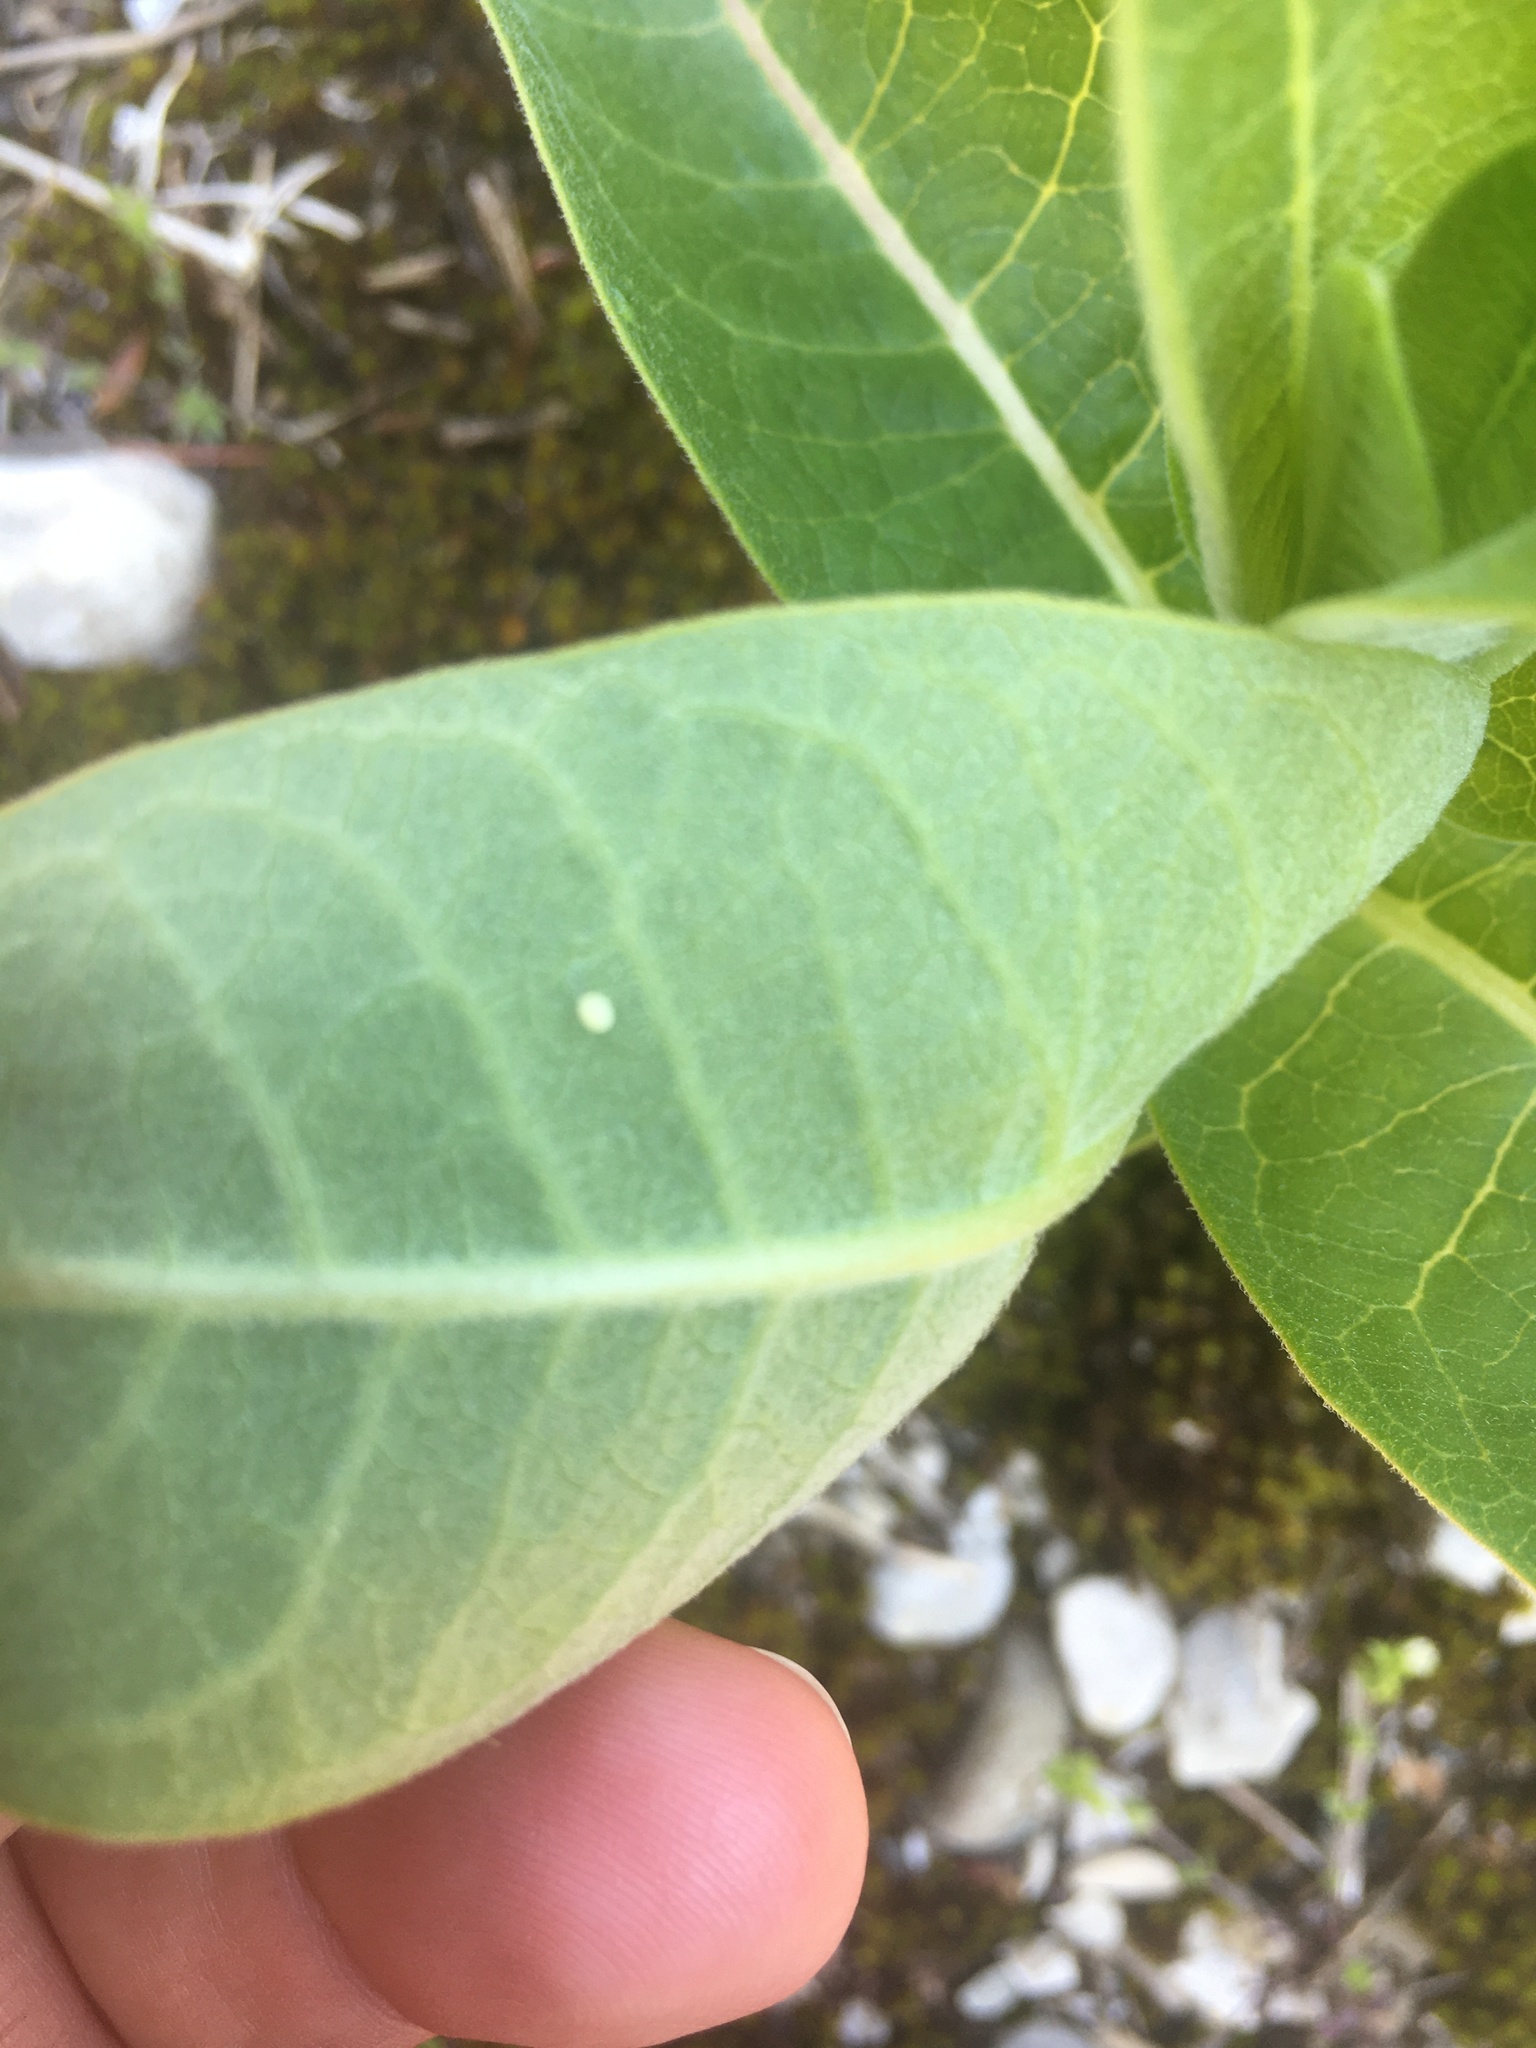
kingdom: Animalia
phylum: Arthropoda
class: Insecta
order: Lepidoptera
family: Nymphalidae
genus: Danaus
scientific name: Danaus plexippus
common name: Monarch
